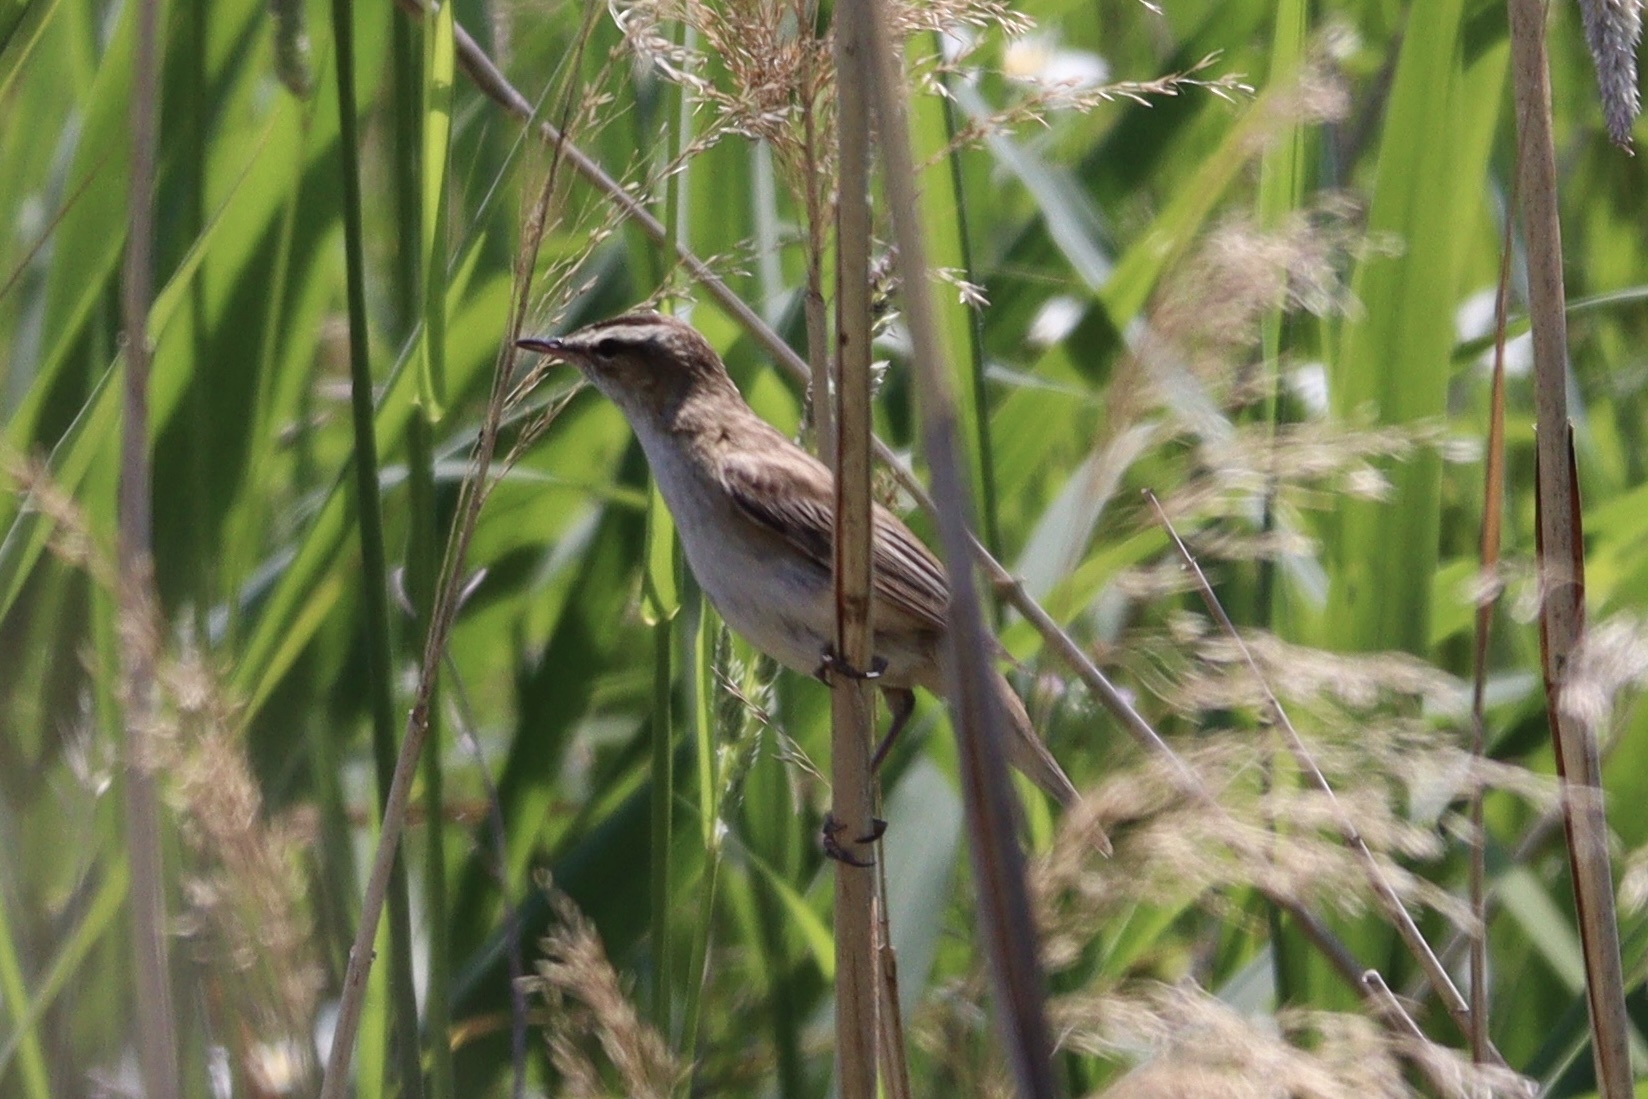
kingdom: Animalia
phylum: Chordata
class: Aves
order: Passeriformes
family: Acrocephalidae
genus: Acrocephalus
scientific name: Acrocephalus schoenobaenus
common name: Sedge warbler
